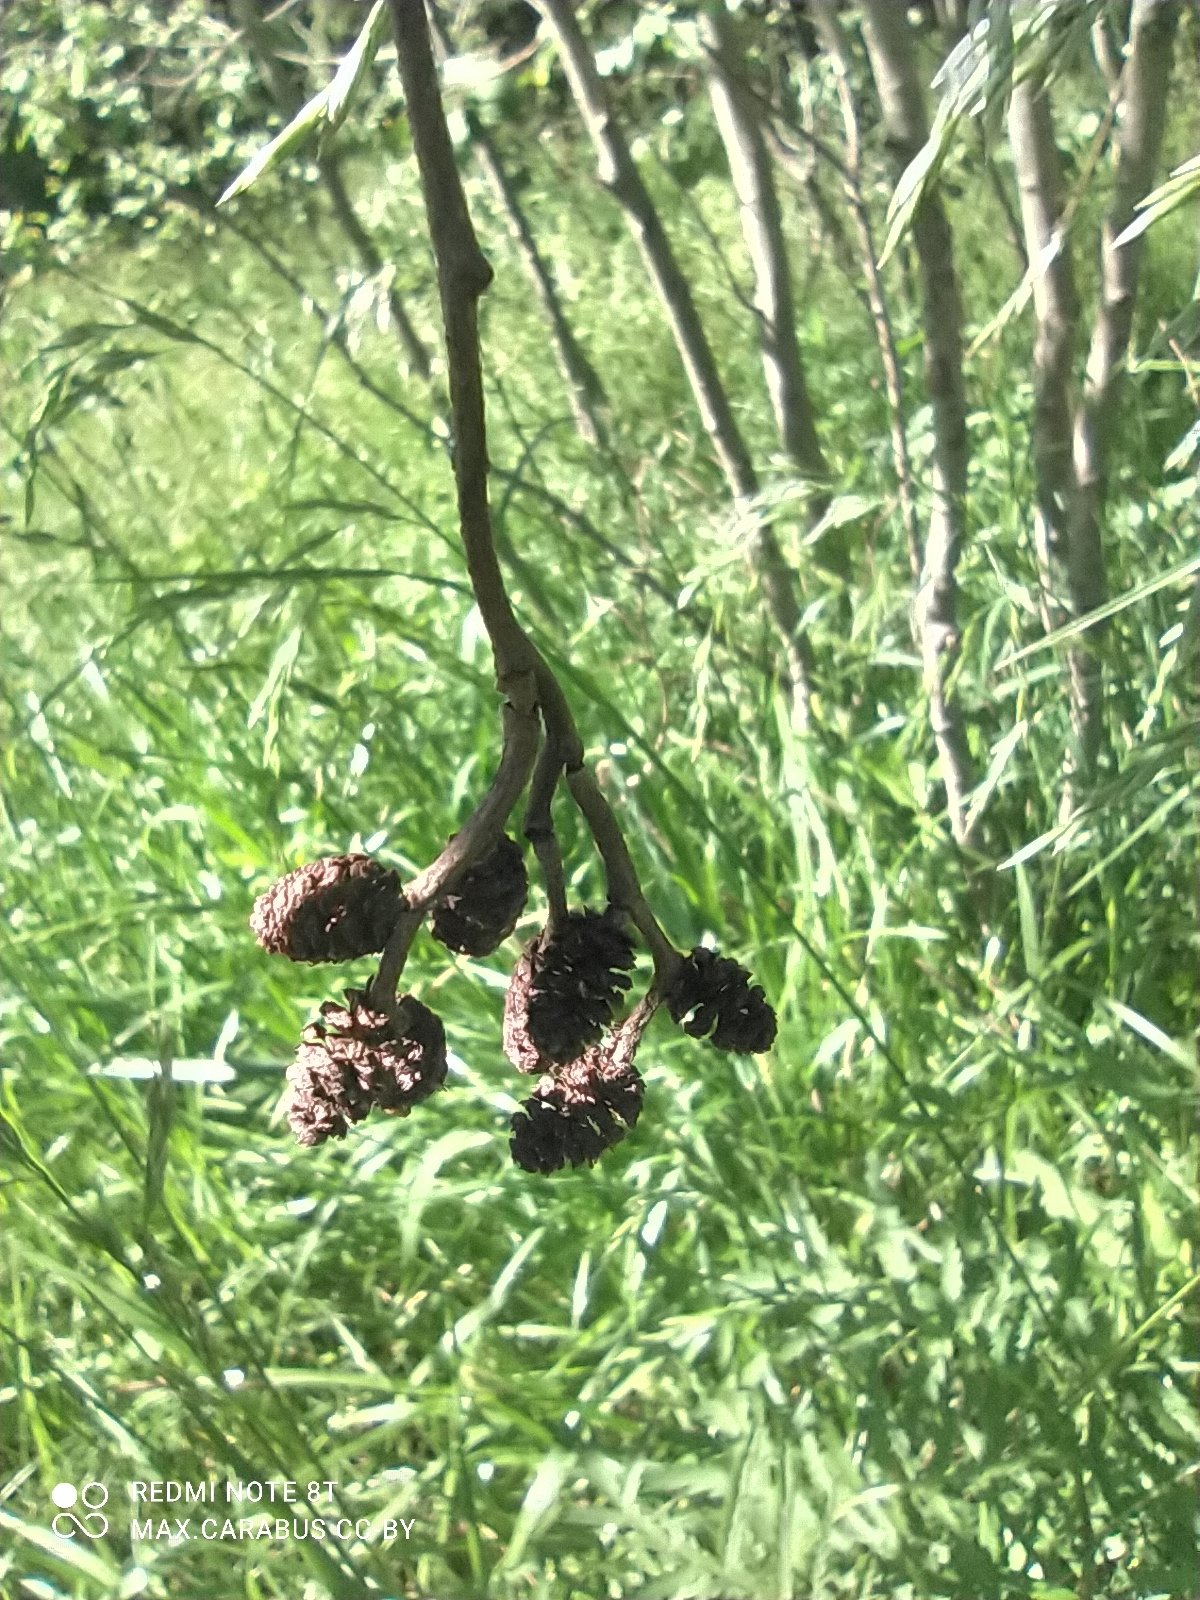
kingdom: Plantae
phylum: Tracheophyta
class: Magnoliopsida
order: Fagales
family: Betulaceae
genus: Alnus
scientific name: Alnus incana
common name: Grey alder
